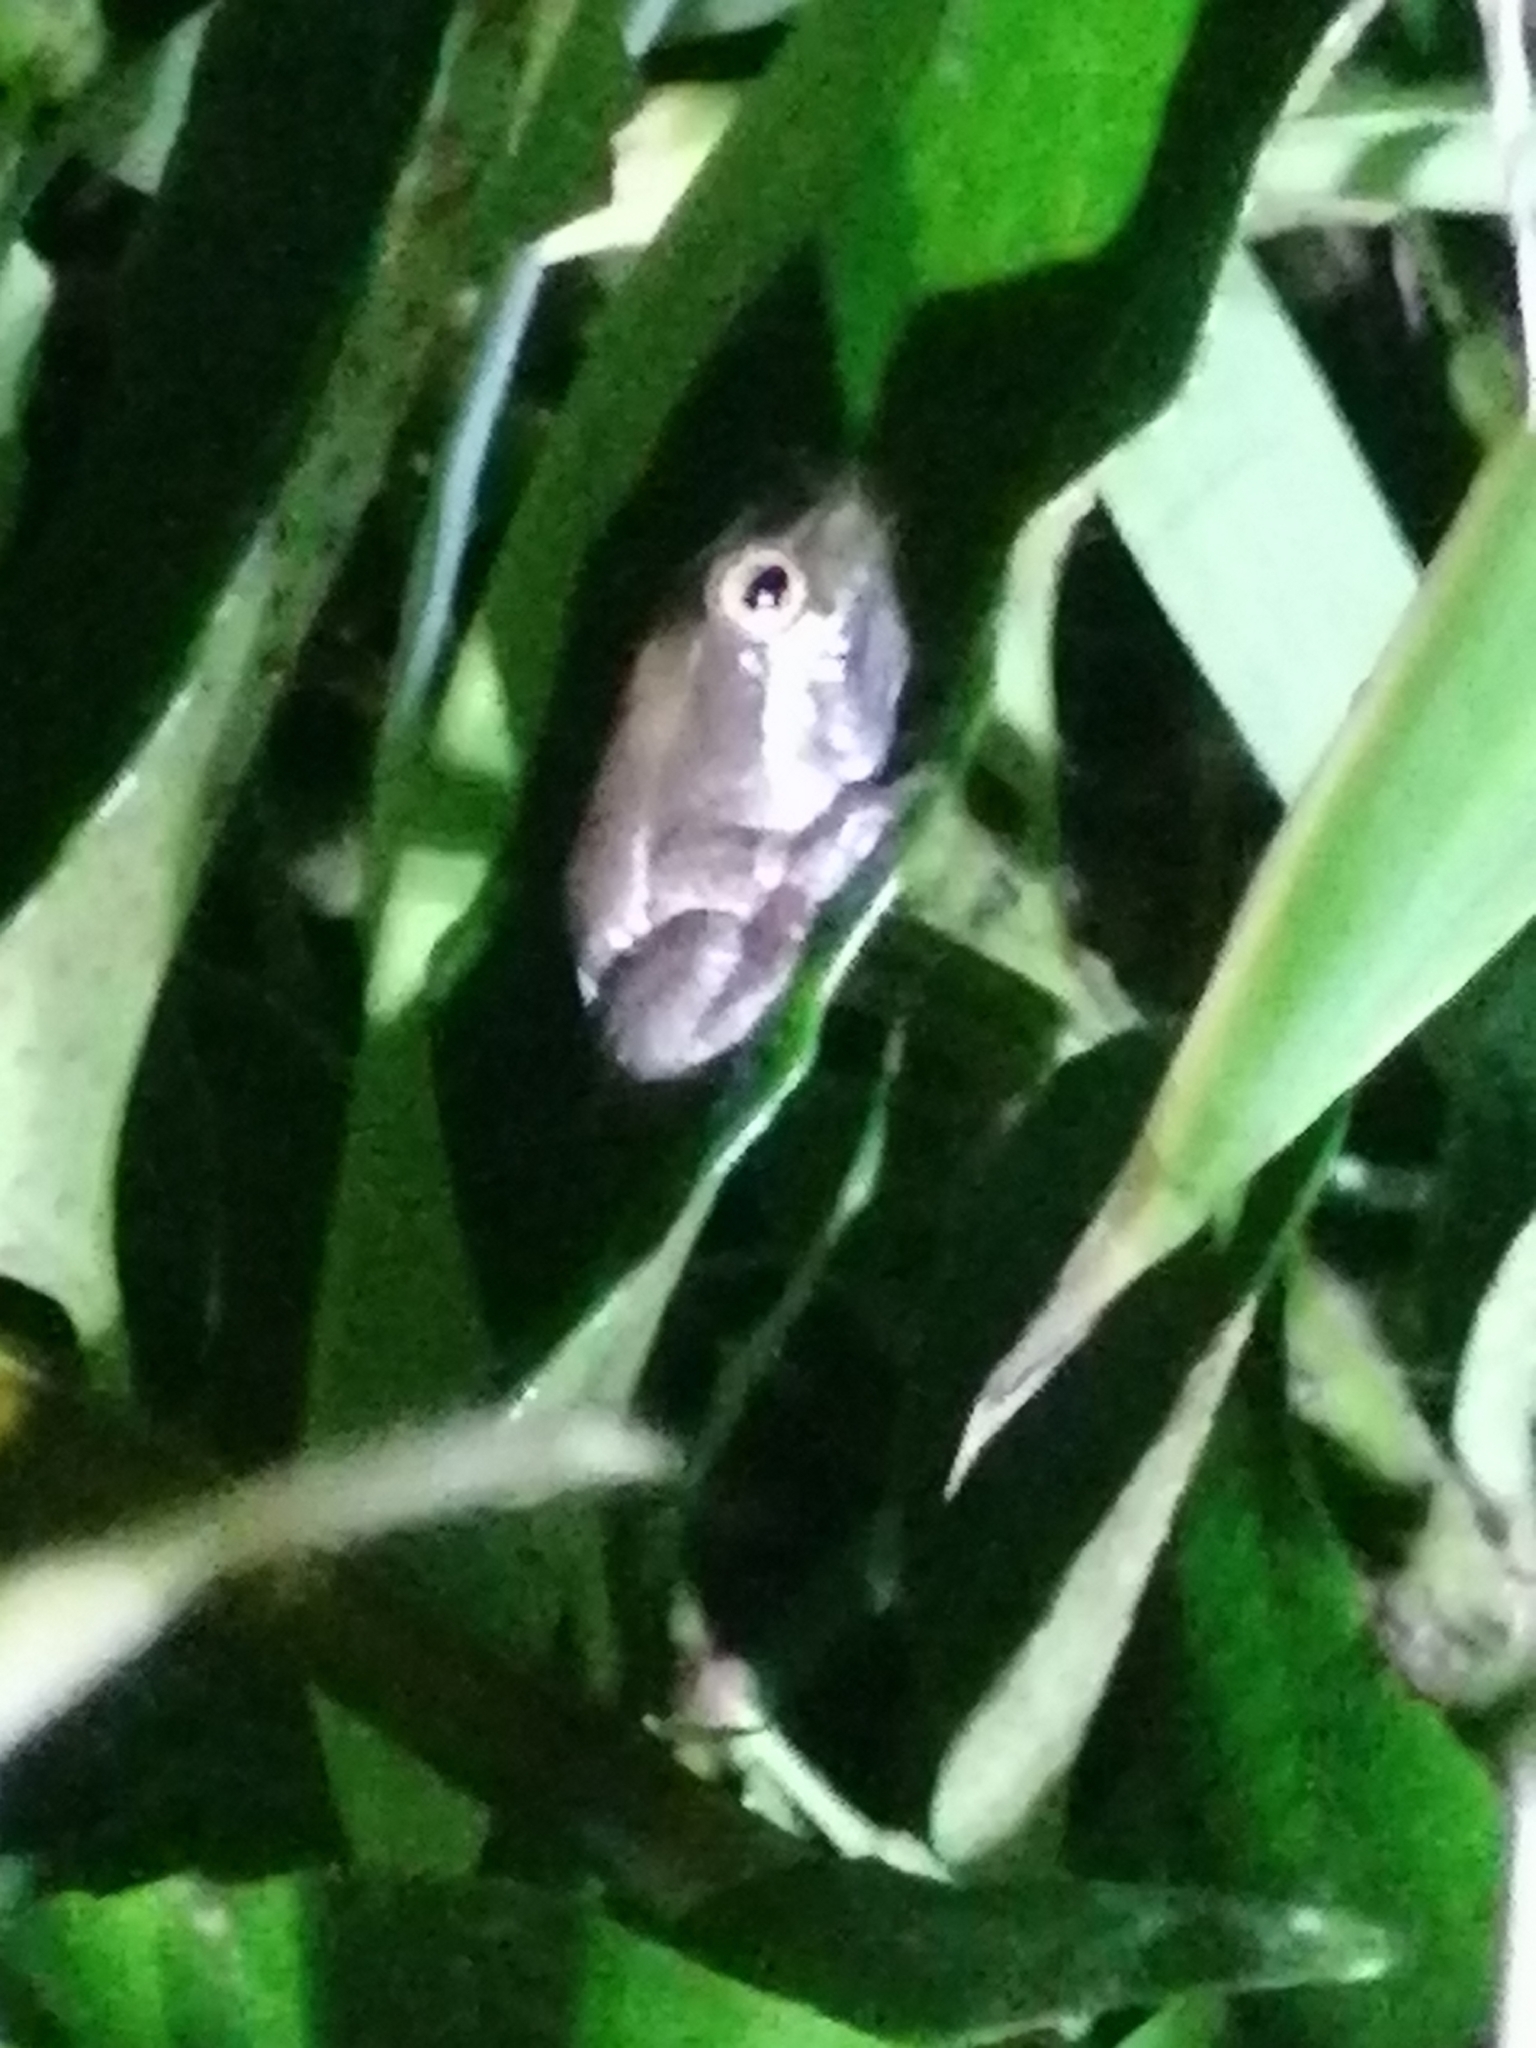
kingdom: Animalia
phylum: Chordata
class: Amphibia
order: Anura
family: Hyperoliidae
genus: Hyperolius
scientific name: Hyperolius marmoratus
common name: Painted reed frog
